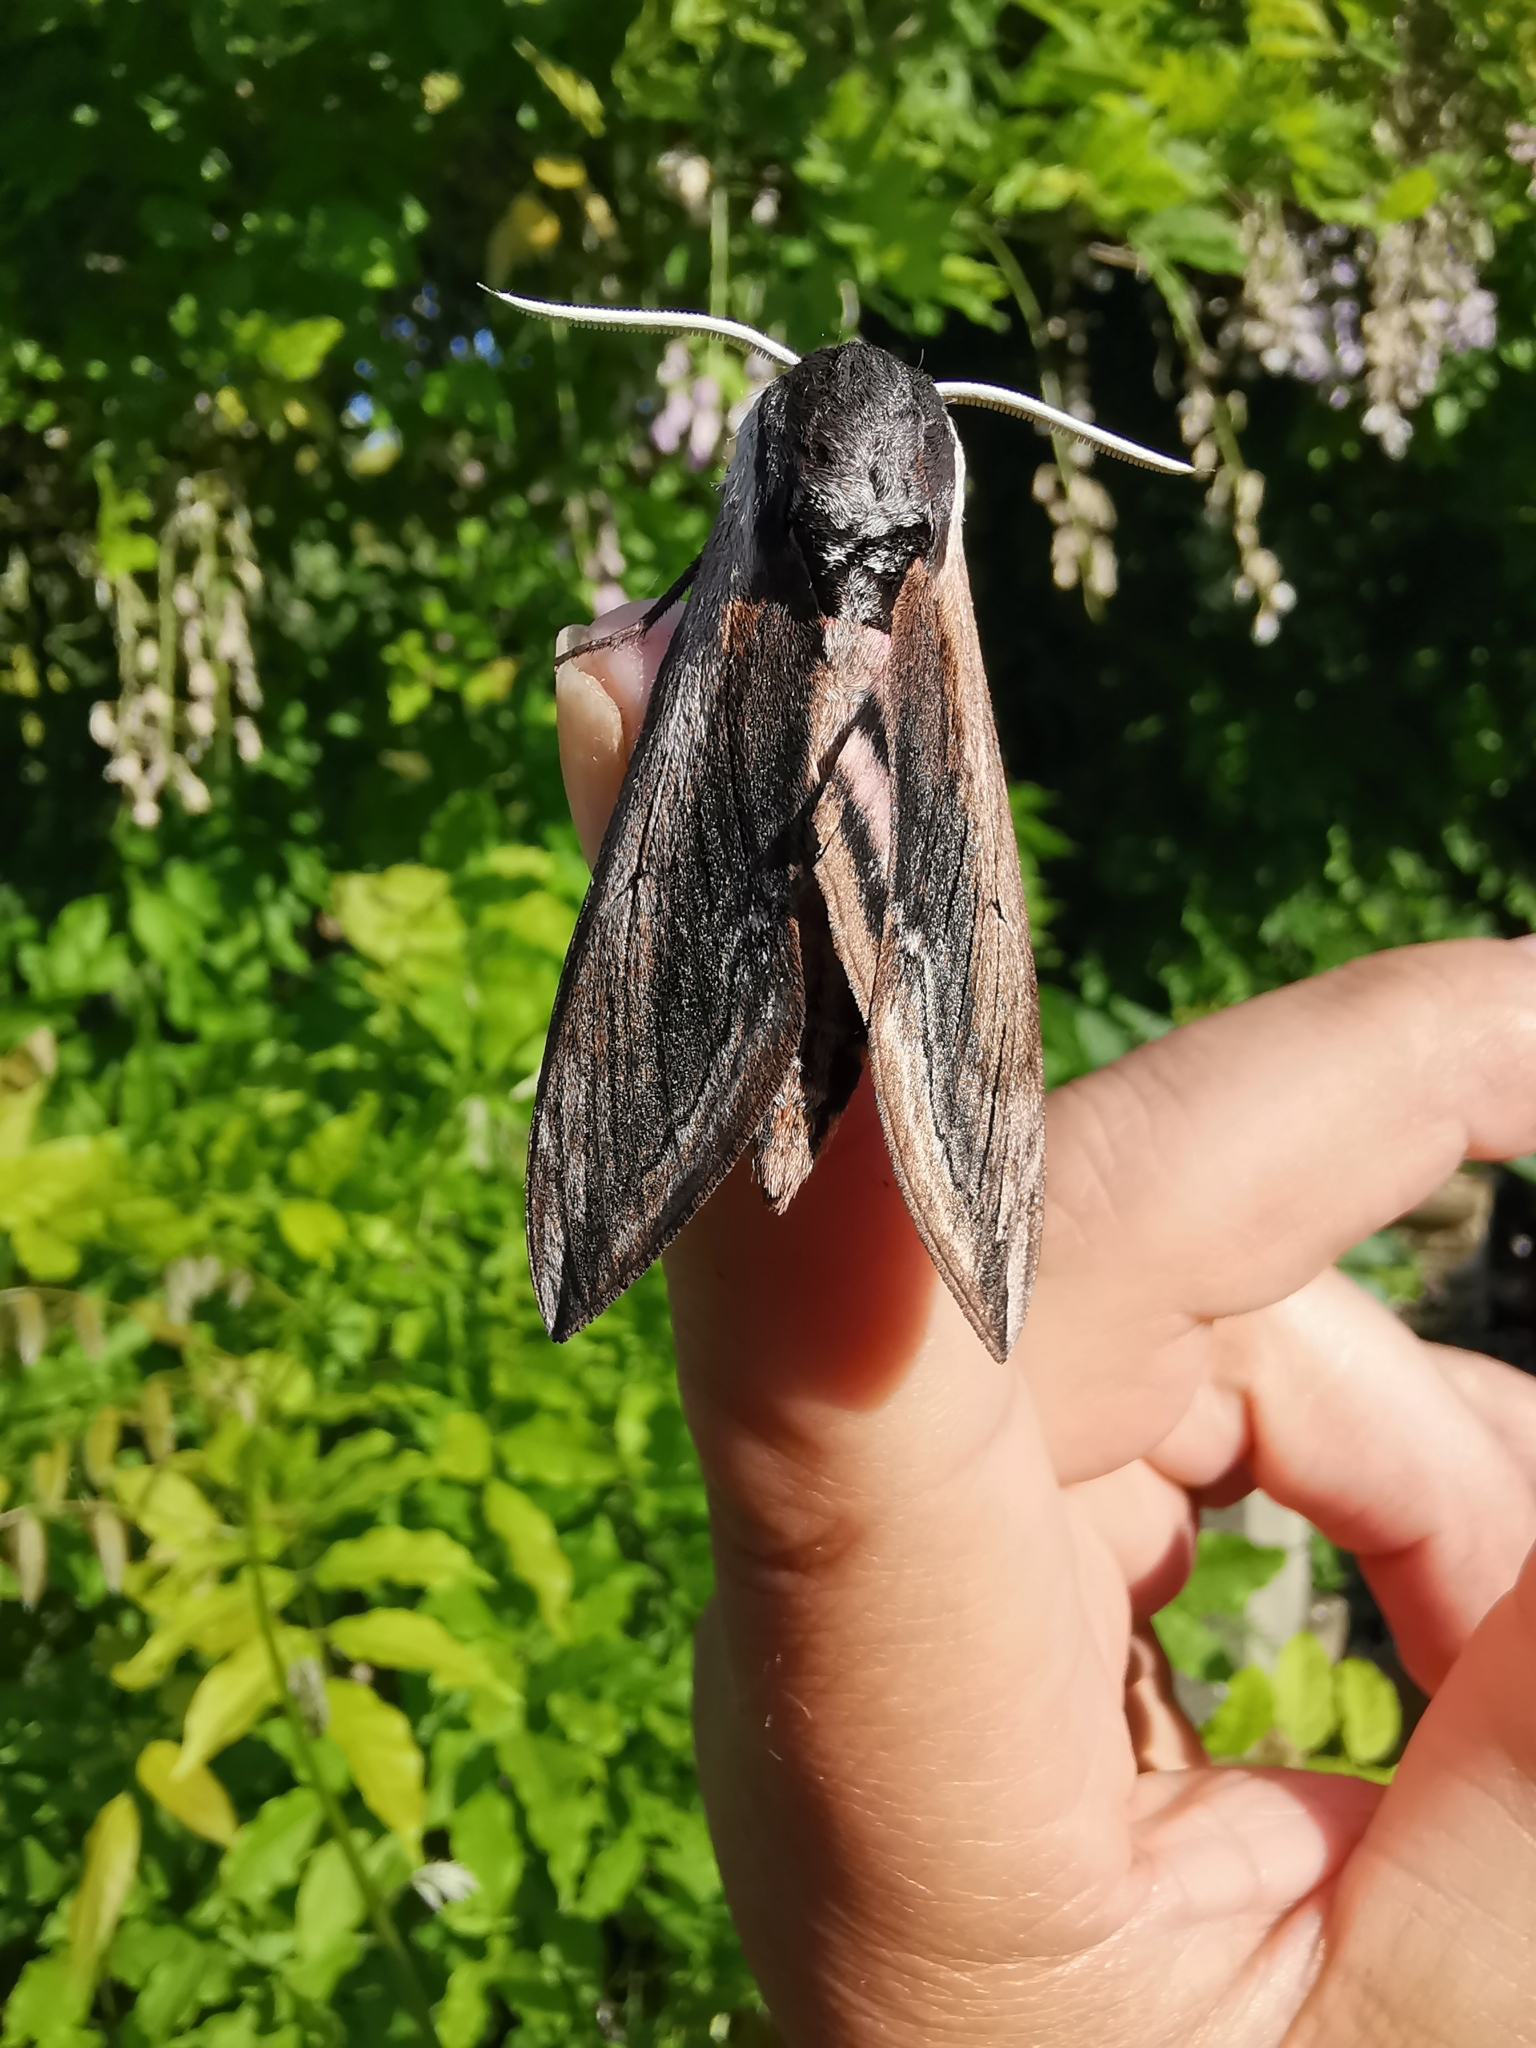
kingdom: Animalia
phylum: Arthropoda
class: Insecta
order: Lepidoptera
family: Sphingidae
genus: Sphinx
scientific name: Sphinx ligustri
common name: Privet hawk-moth
